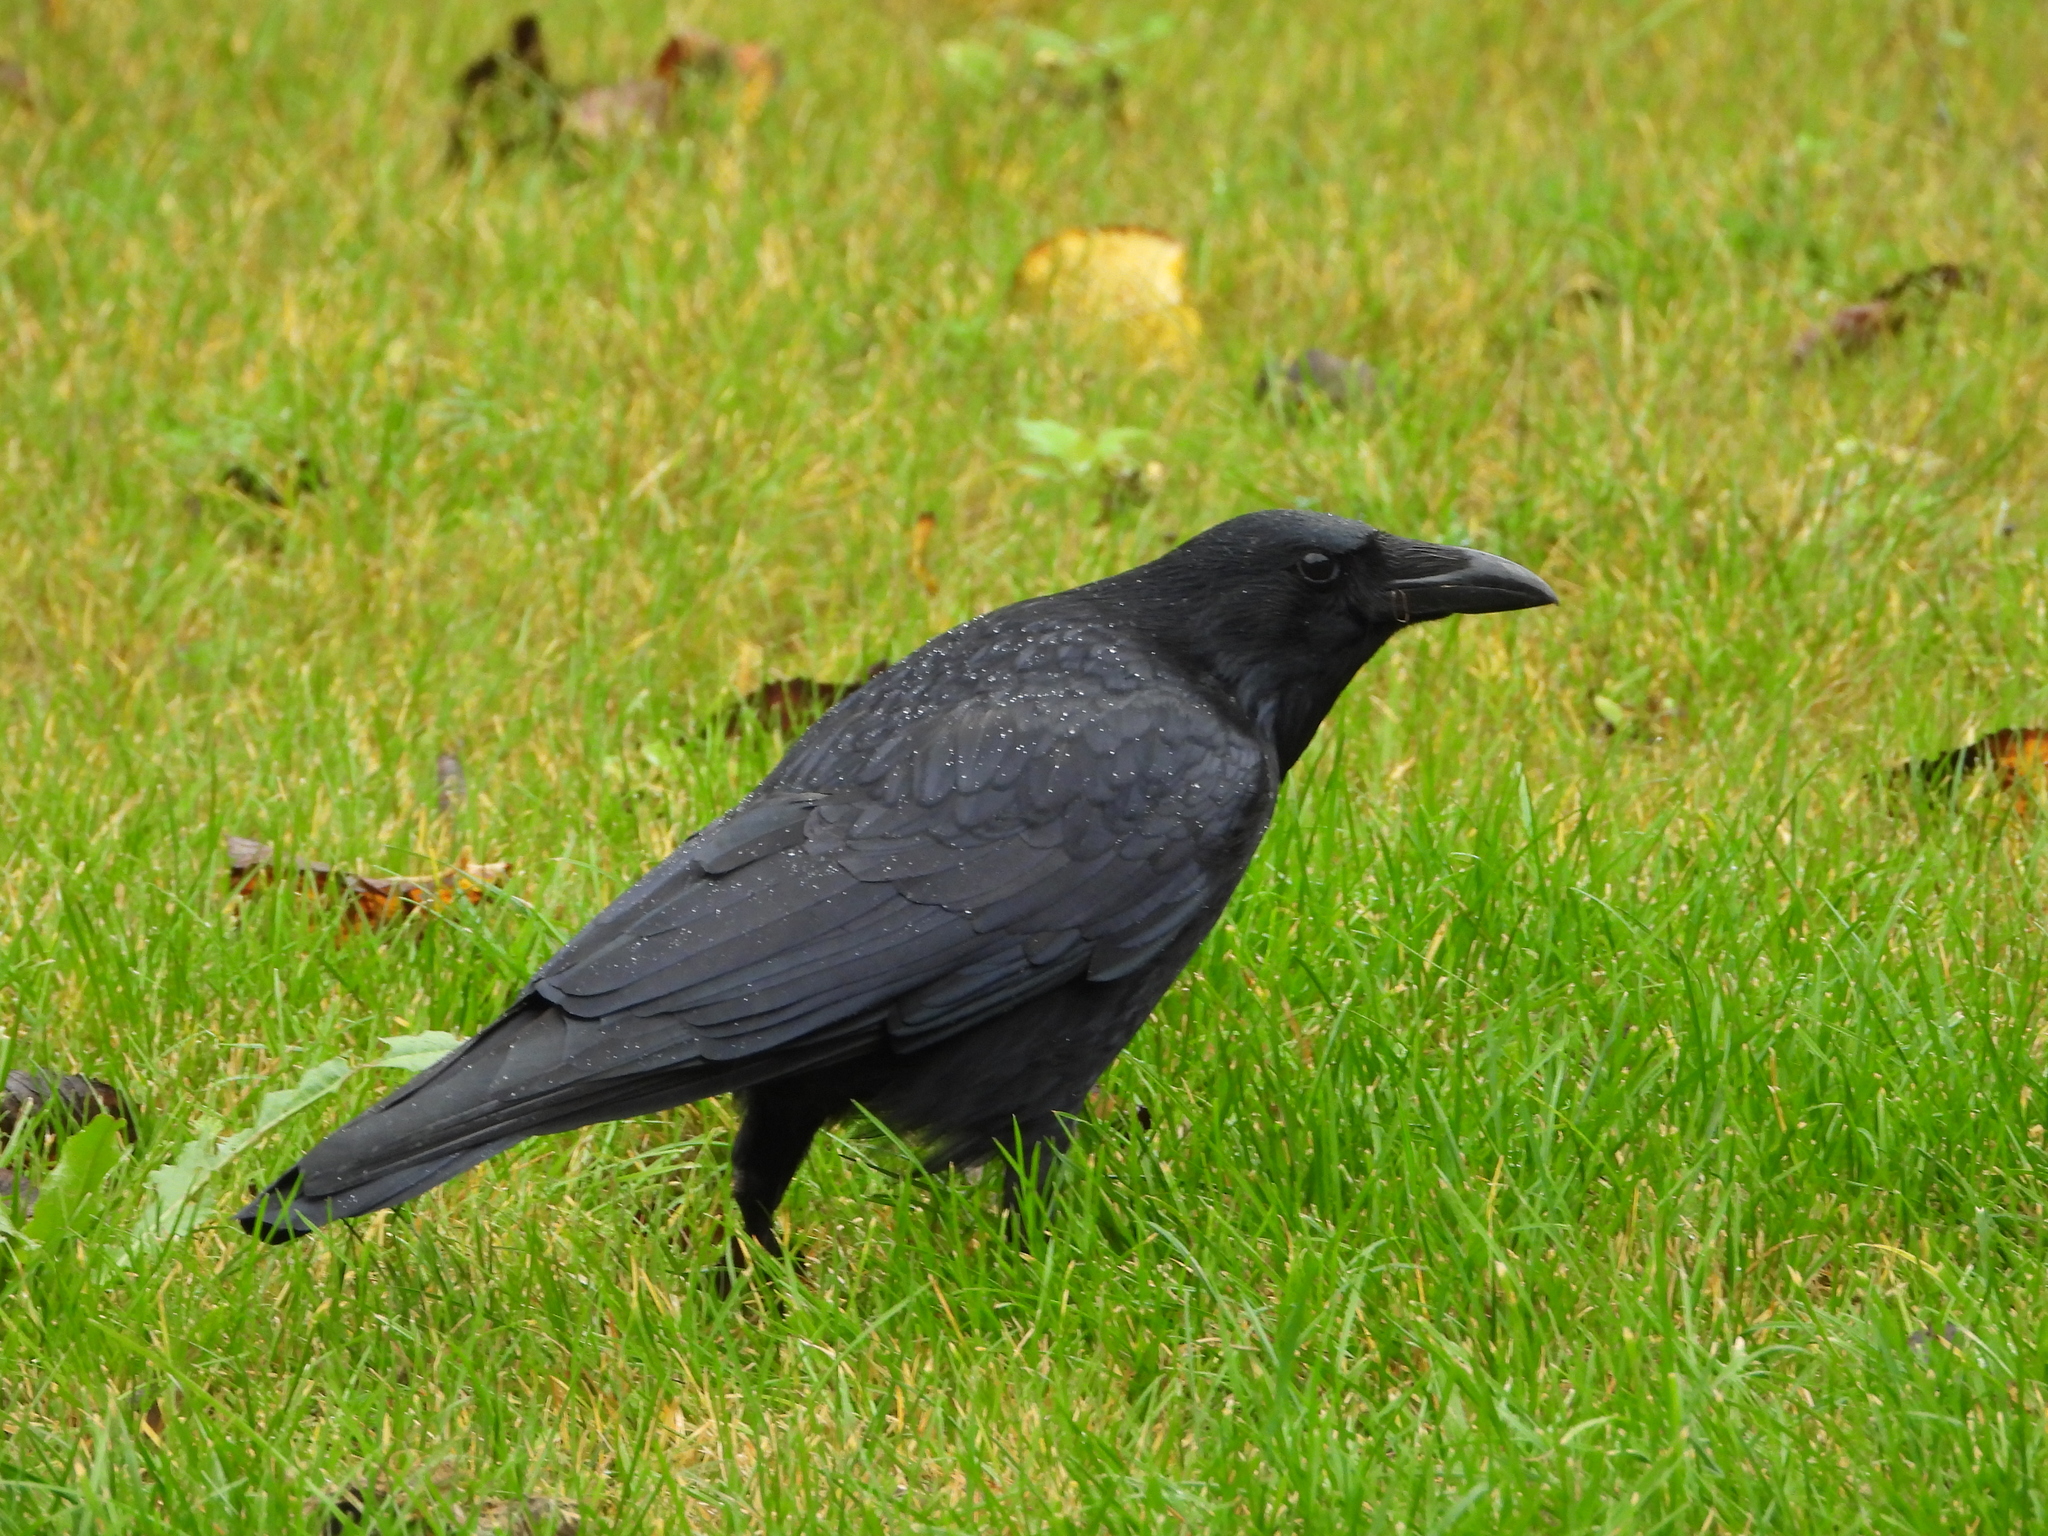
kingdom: Animalia
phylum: Chordata
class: Aves
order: Passeriformes
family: Corvidae
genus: Corvus
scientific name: Corvus corone
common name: Carrion crow
